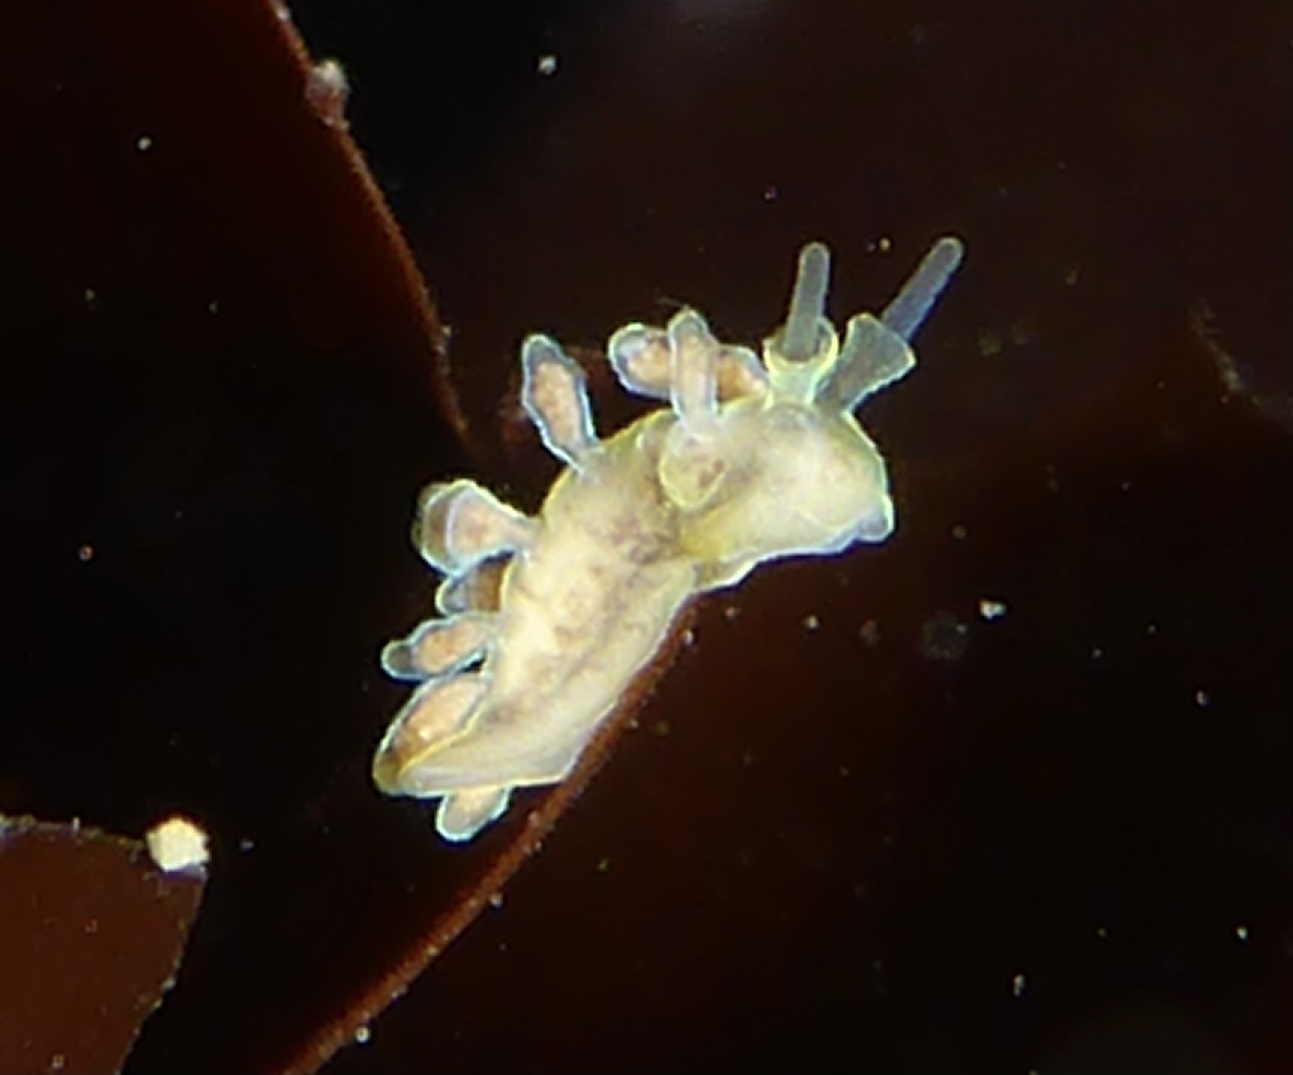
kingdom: Animalia
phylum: Mollusca
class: Gastropoda
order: Nudibranchia
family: Dotidae
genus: Doto
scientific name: Doto columbiana
